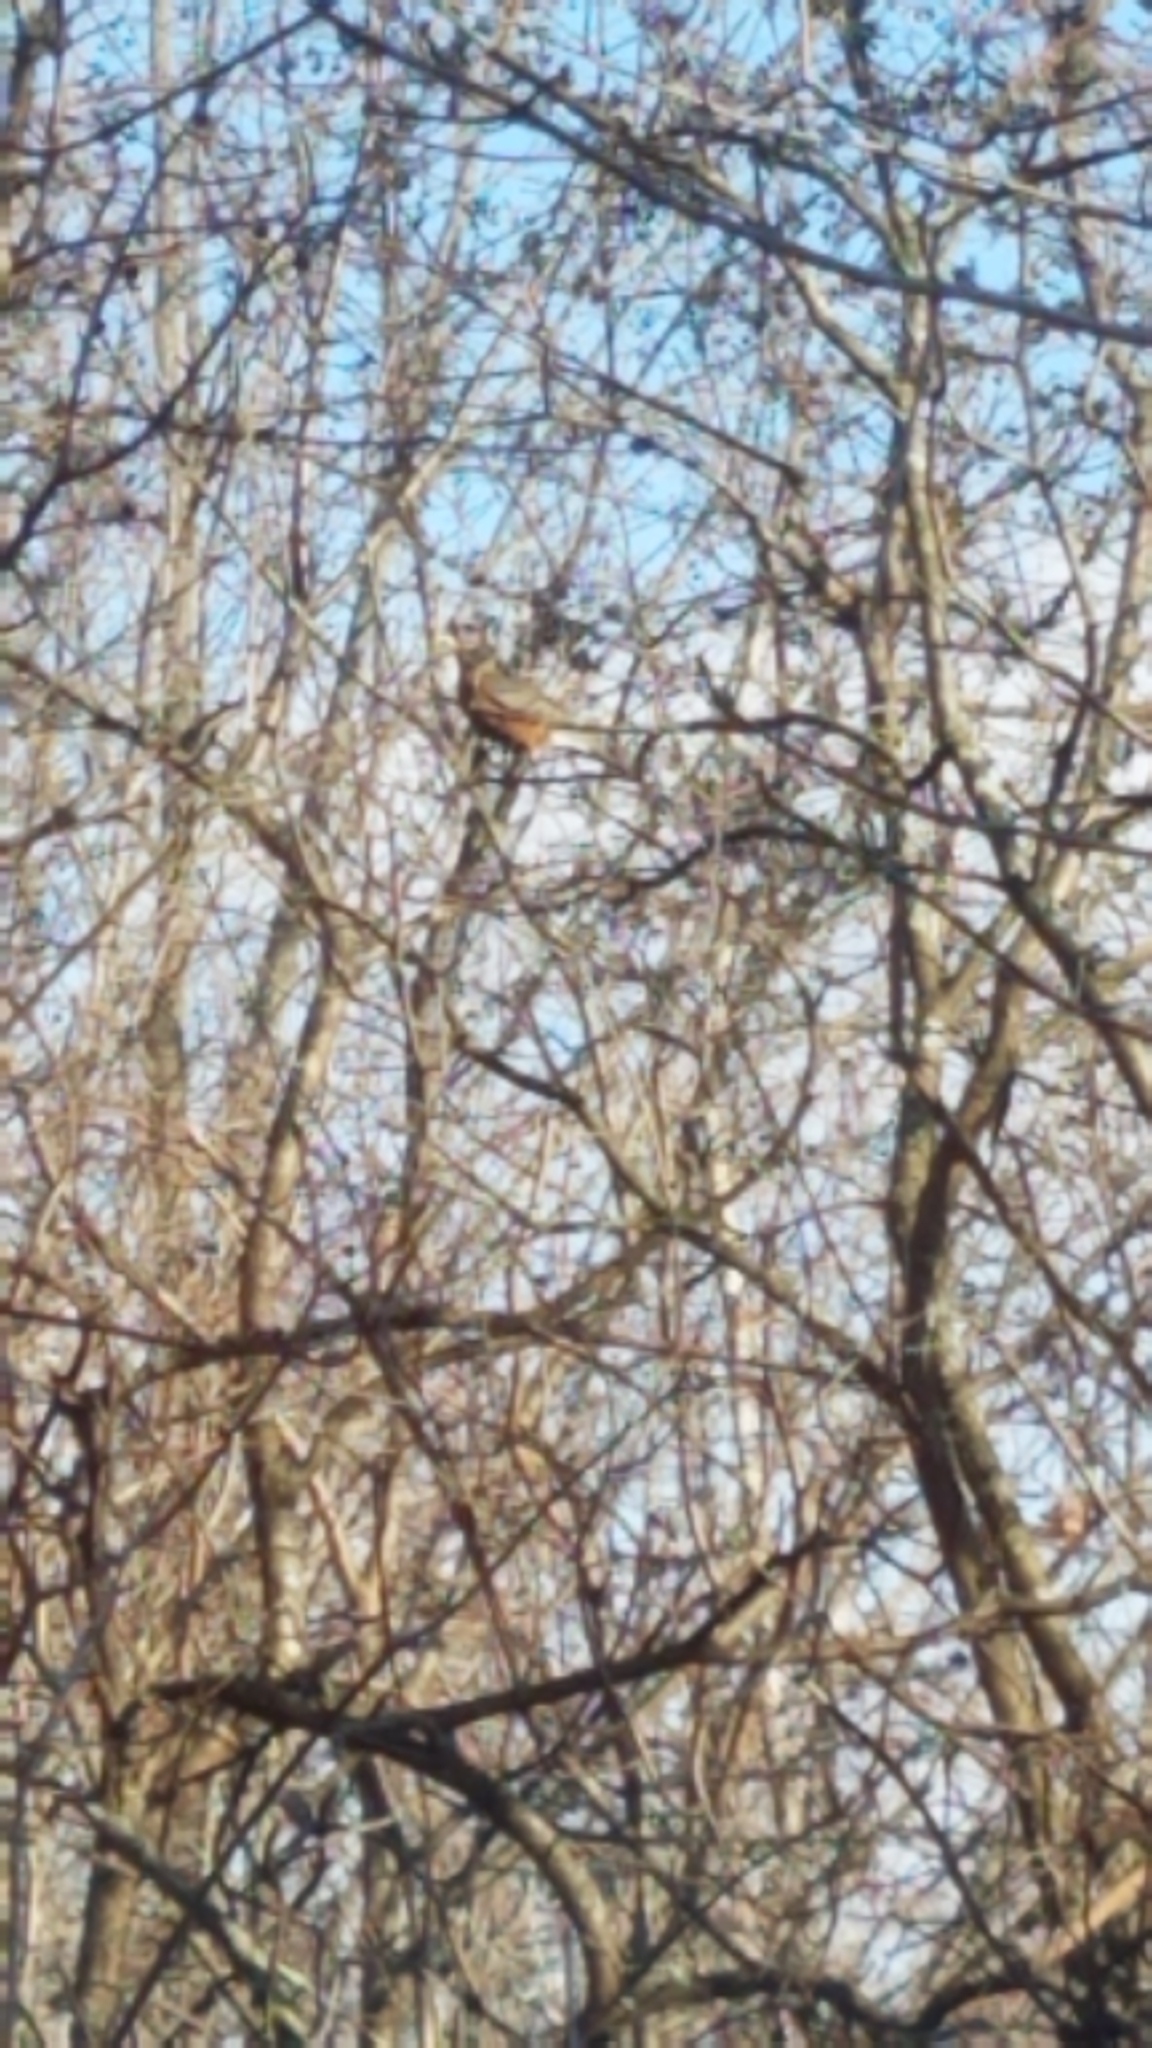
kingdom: Animalia
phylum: Chordata
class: Aves
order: Passeriformes
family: Turdidae
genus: Turdus
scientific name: Turdus migratorius
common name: American robin
